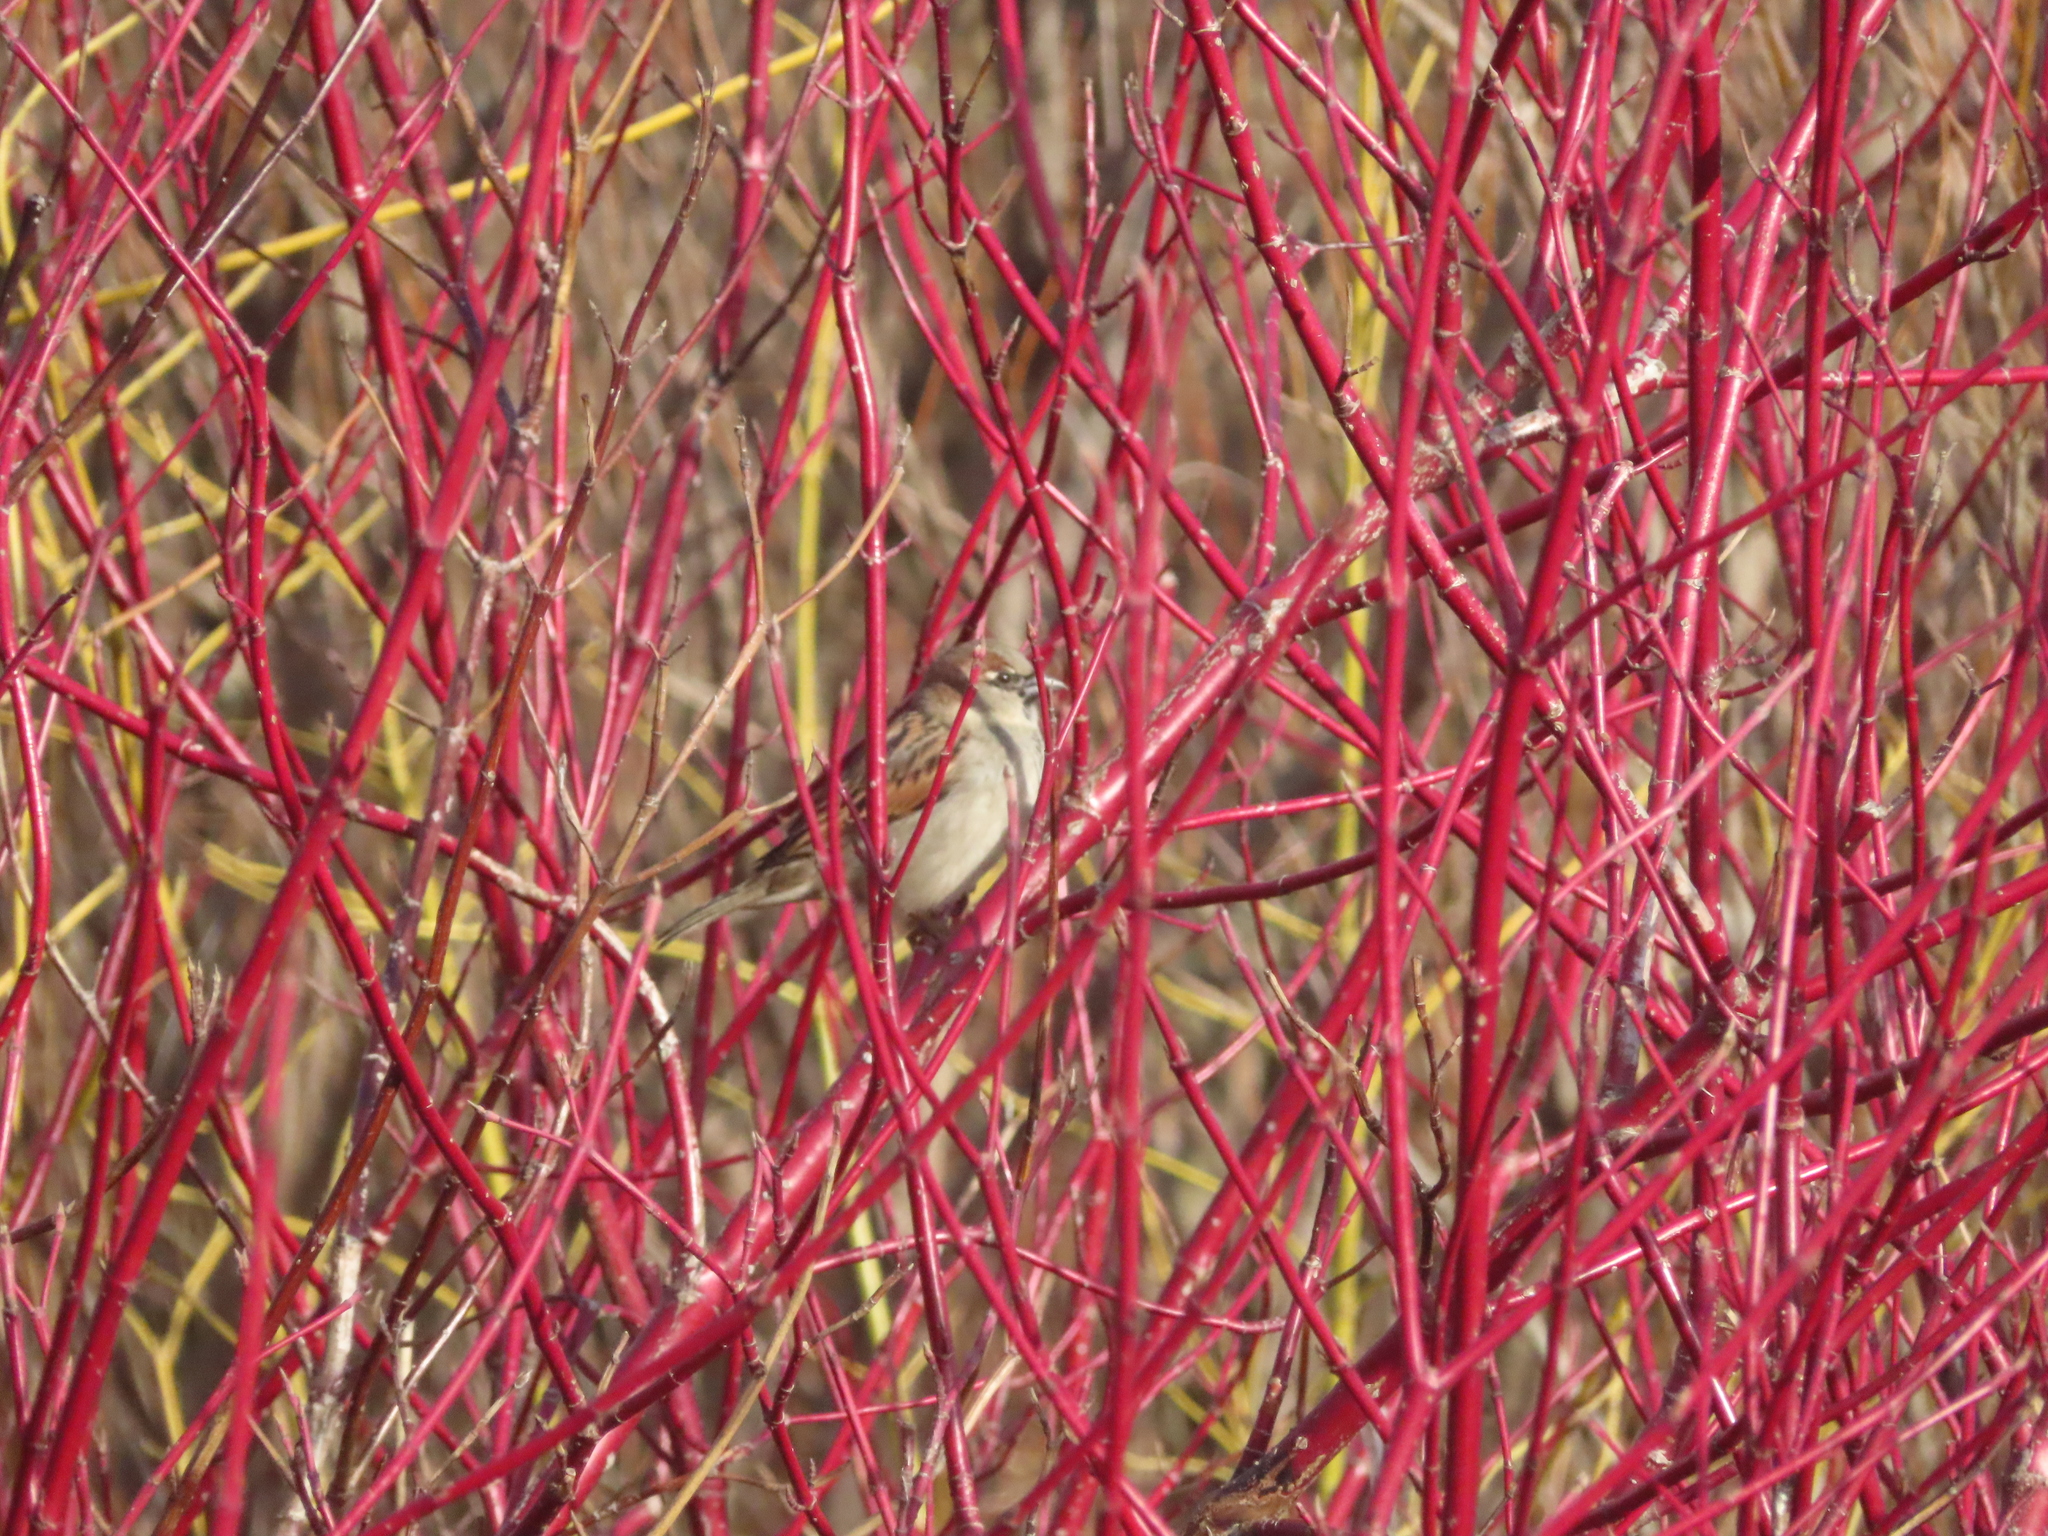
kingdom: Animalia
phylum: Chordata
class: Aves
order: Passeriformes
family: Passeridae
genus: Passer
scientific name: Passer domesticus
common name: House sparrow
